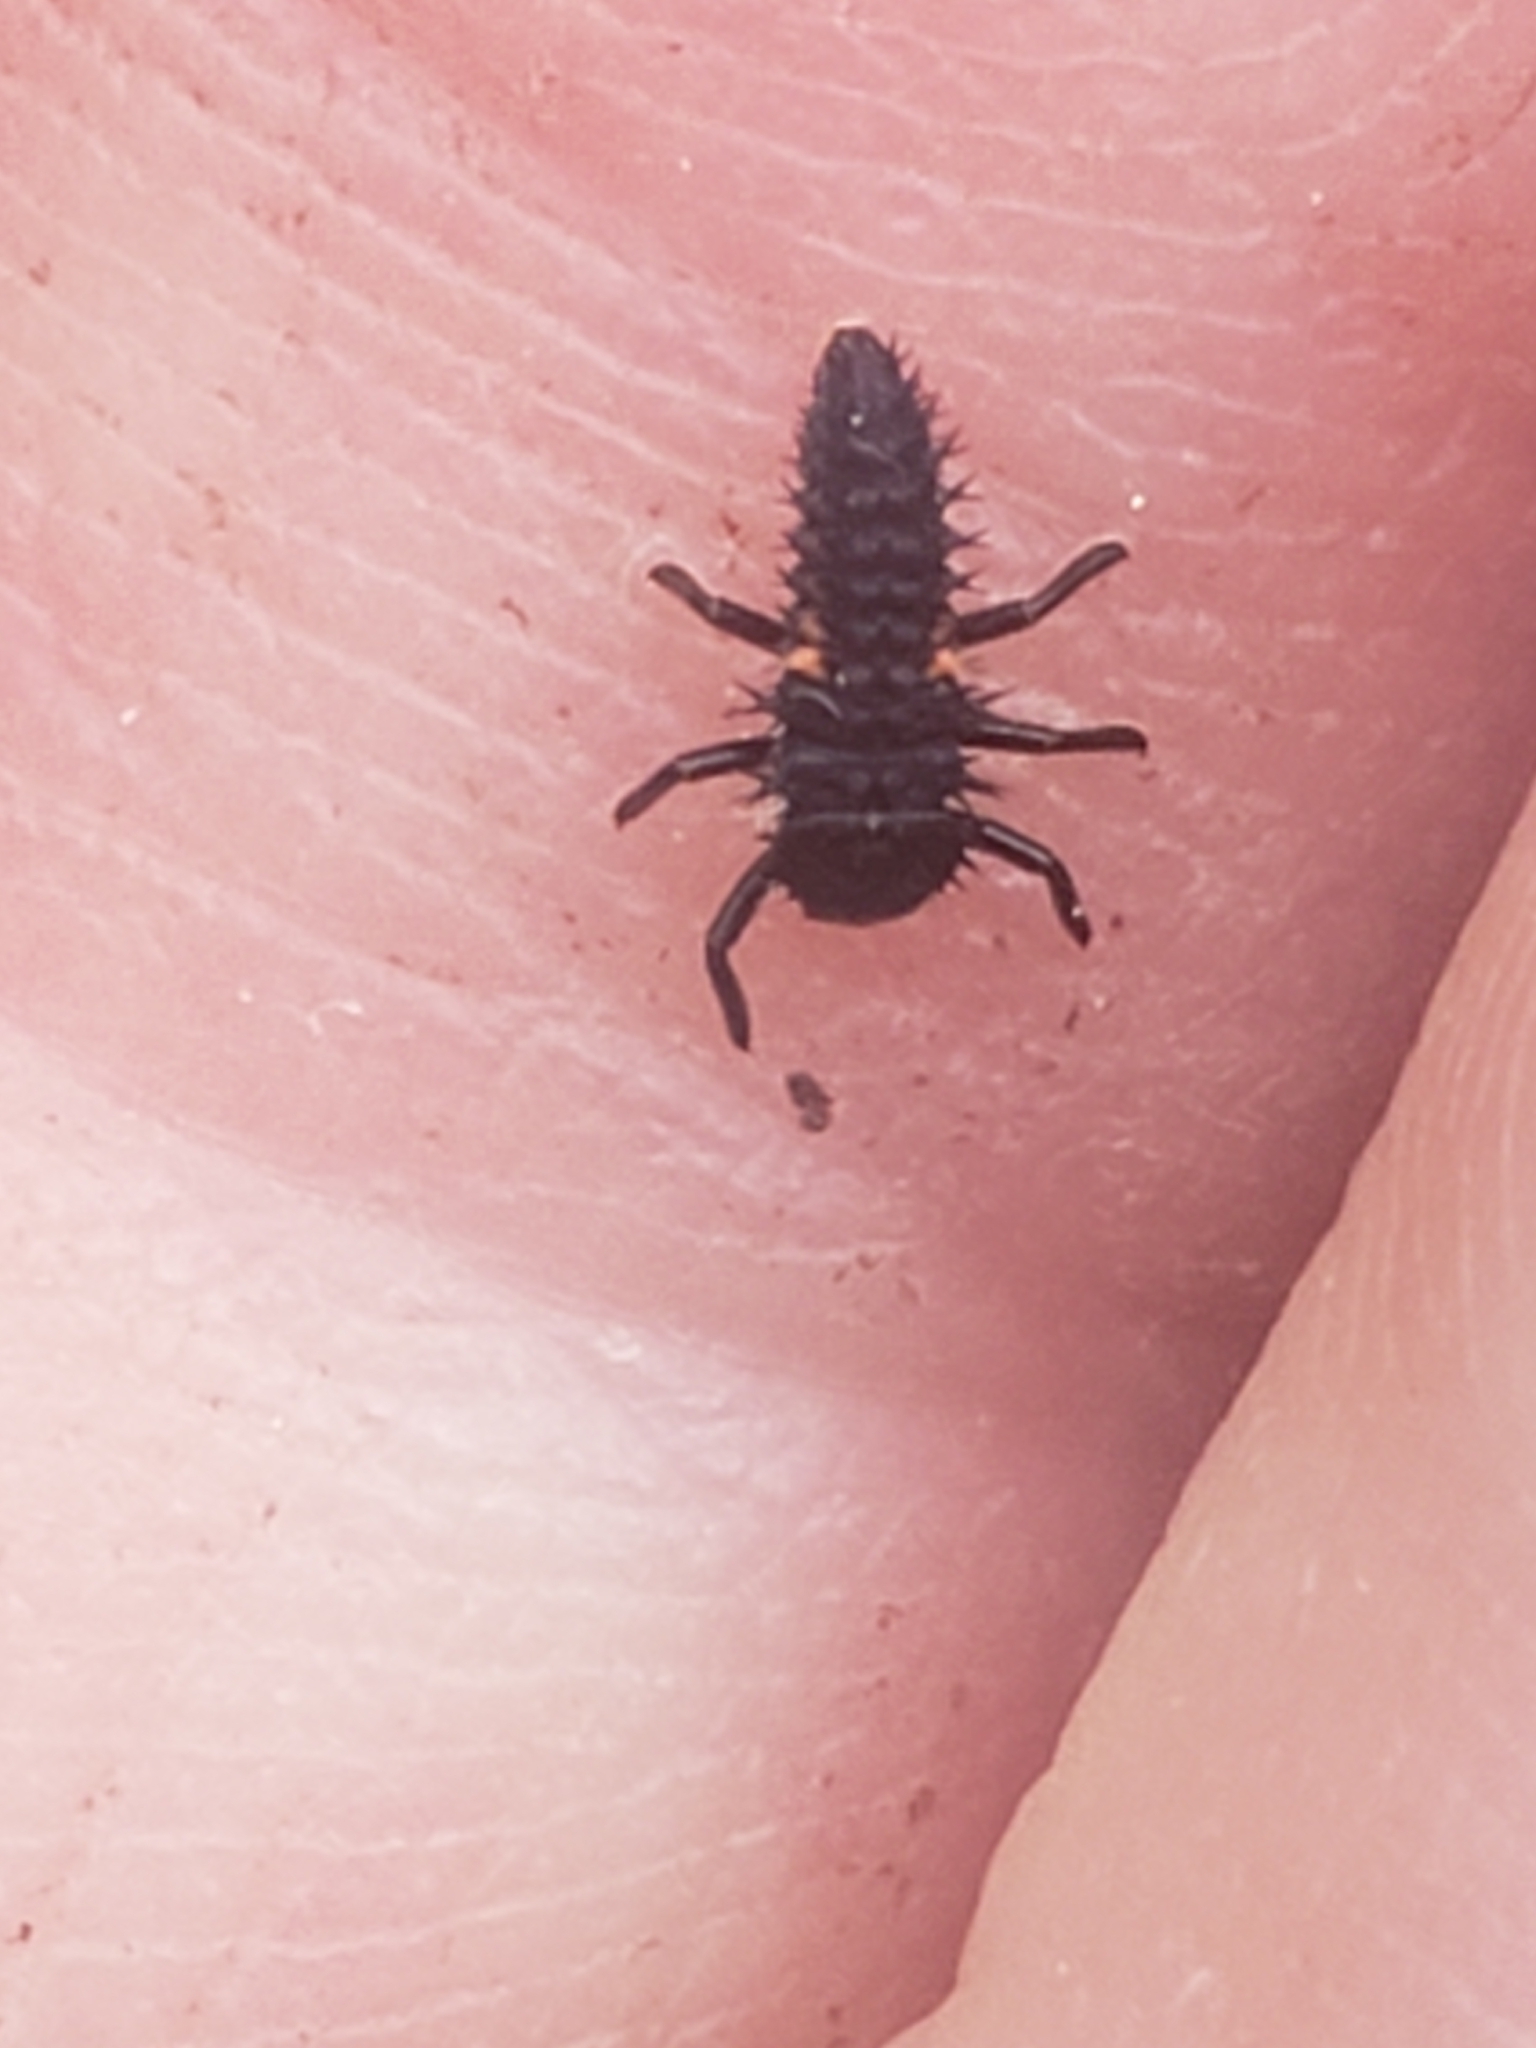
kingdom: Animalia
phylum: Arthropoda
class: Insecta
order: Coleoptera
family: Coccinellidae
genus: Harmonia
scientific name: Harmonia axyridis
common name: Harlequin ladybird
